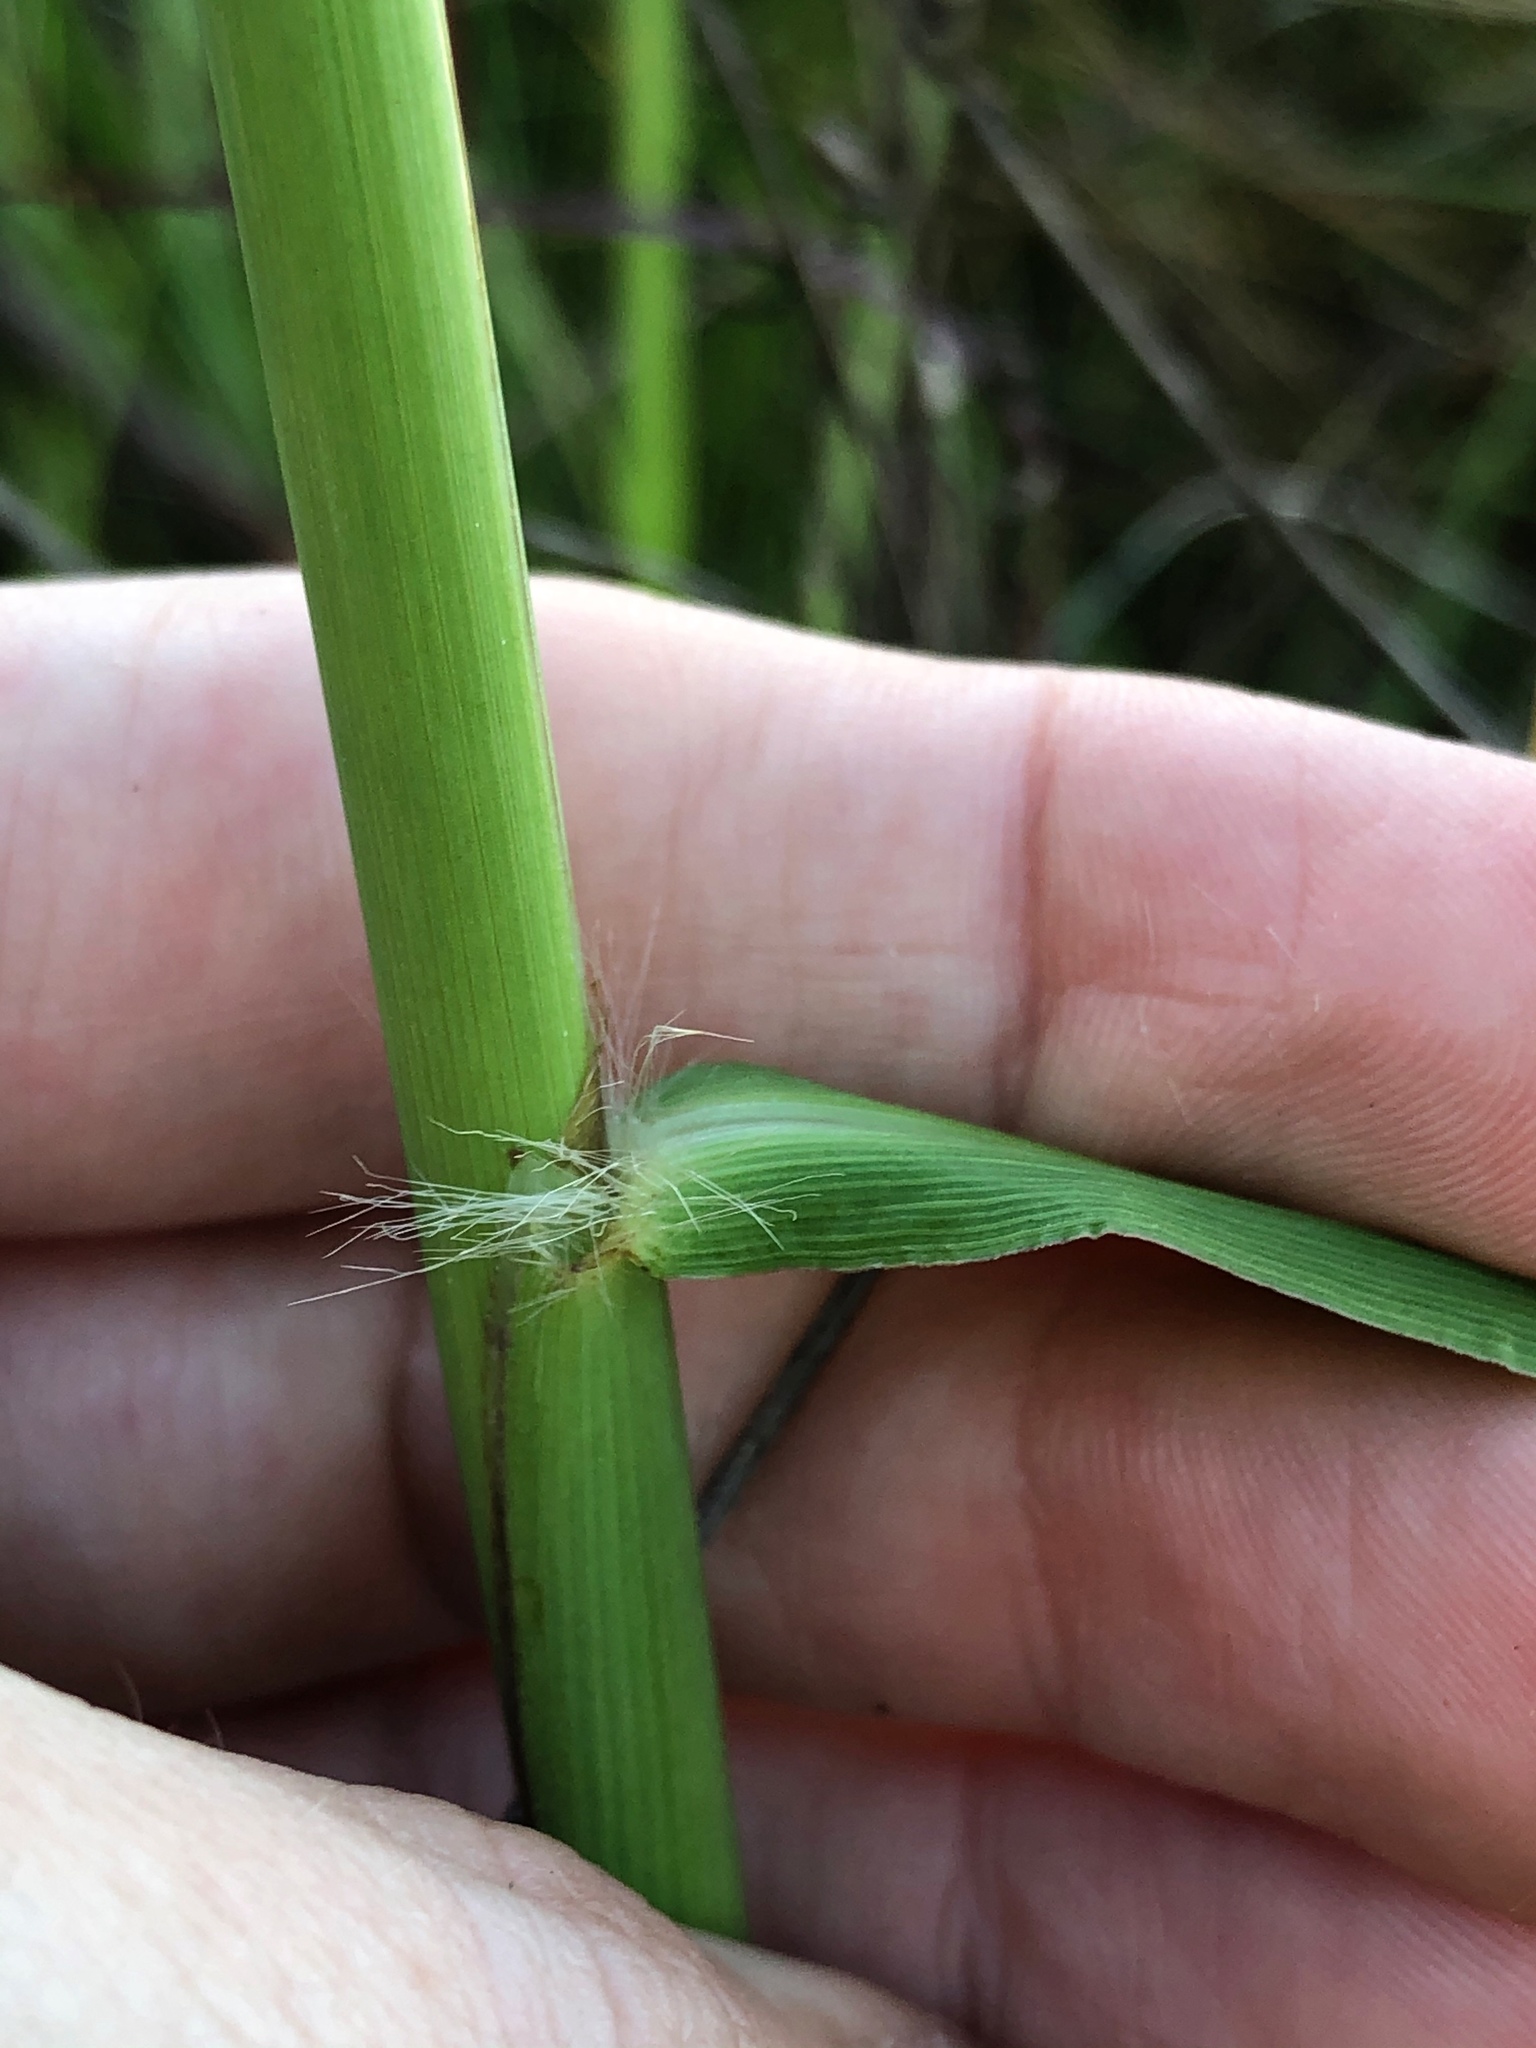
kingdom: Plantae
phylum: Tracheophyta
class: Liliopsida
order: Poales
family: Poaceae
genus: Paspalum
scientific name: Paspalum urvillei
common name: Vasey's grass
